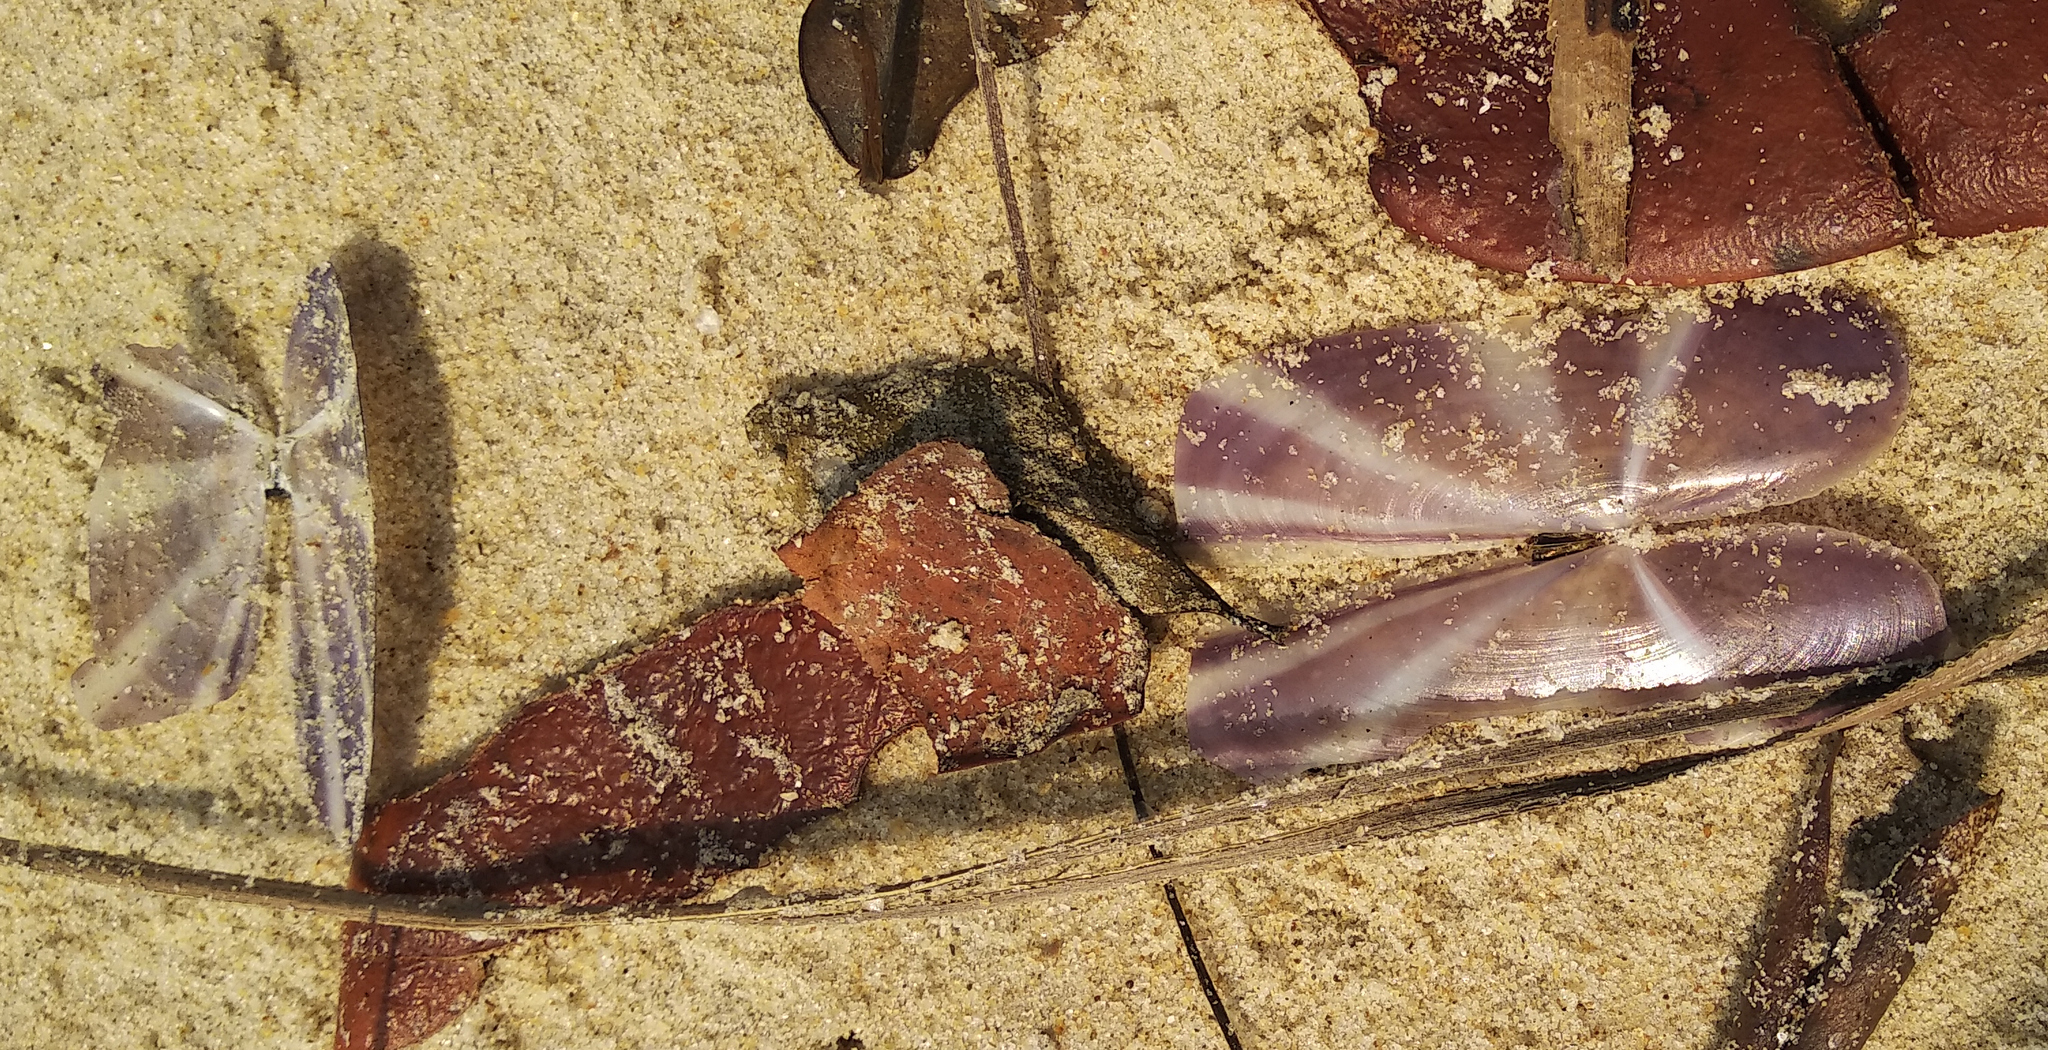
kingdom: Animalia
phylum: Mollusca
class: Bivalvia
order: Adapedonta
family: Pharidae
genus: Siliqua
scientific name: Siliqua radiata
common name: Sunset razor clam
